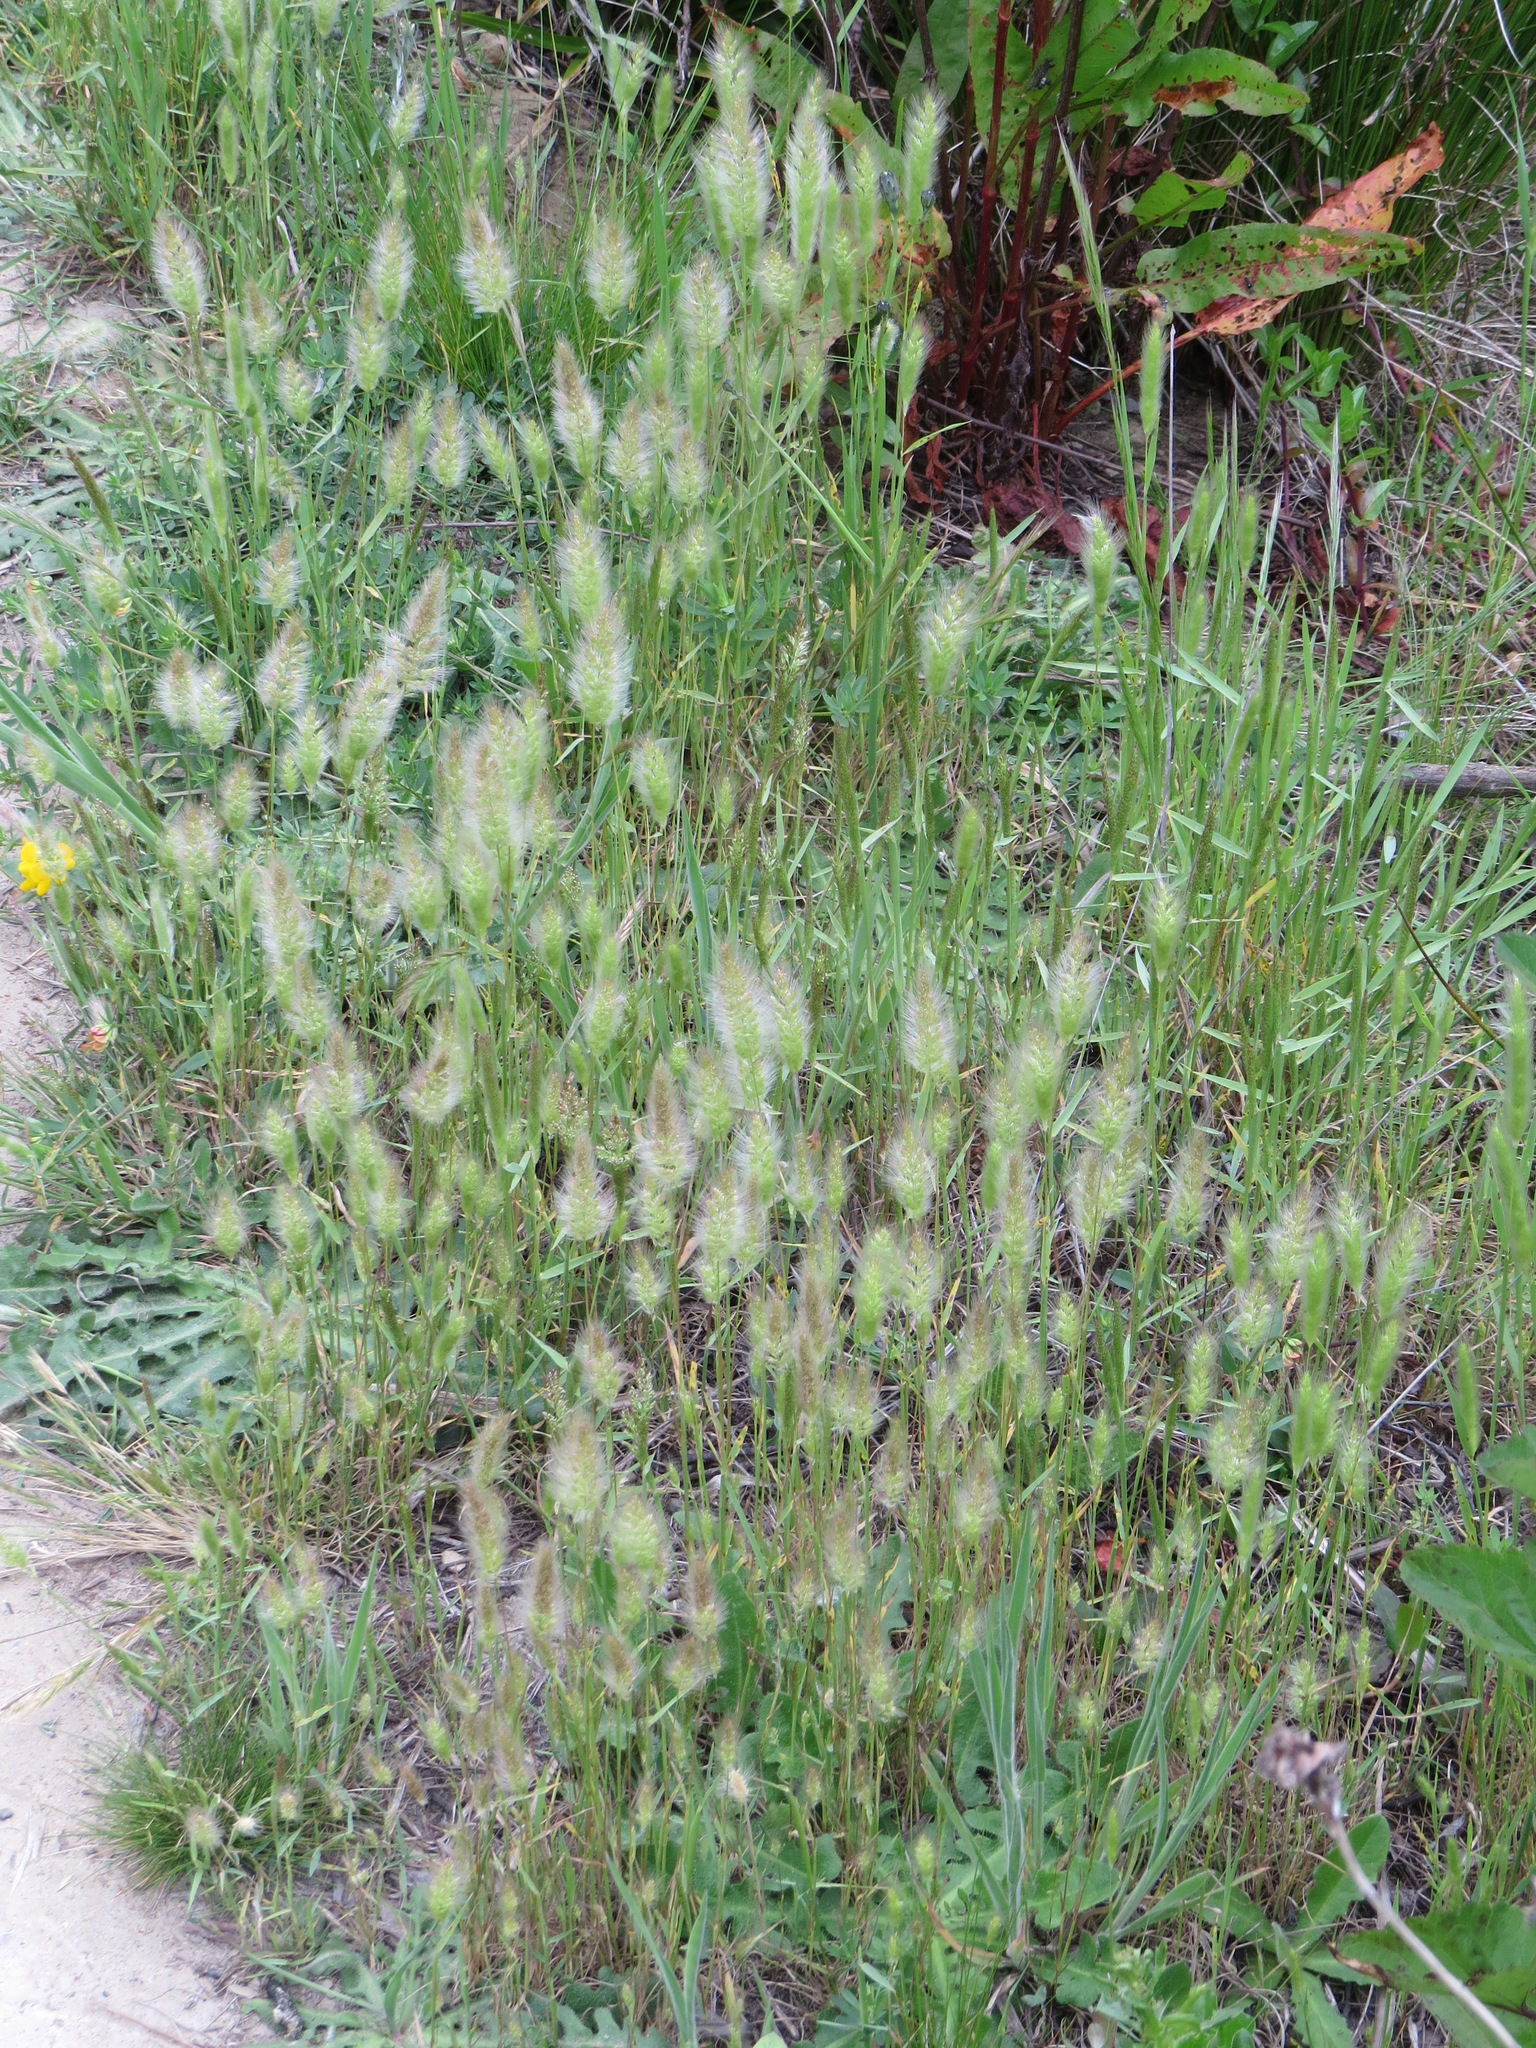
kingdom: Plantae
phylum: Tracheophyta
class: Liliopsida
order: Poales
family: Poaceae
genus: Polypogon
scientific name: Polypogon monspeliensis
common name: Annual rabbitsfoot grass
